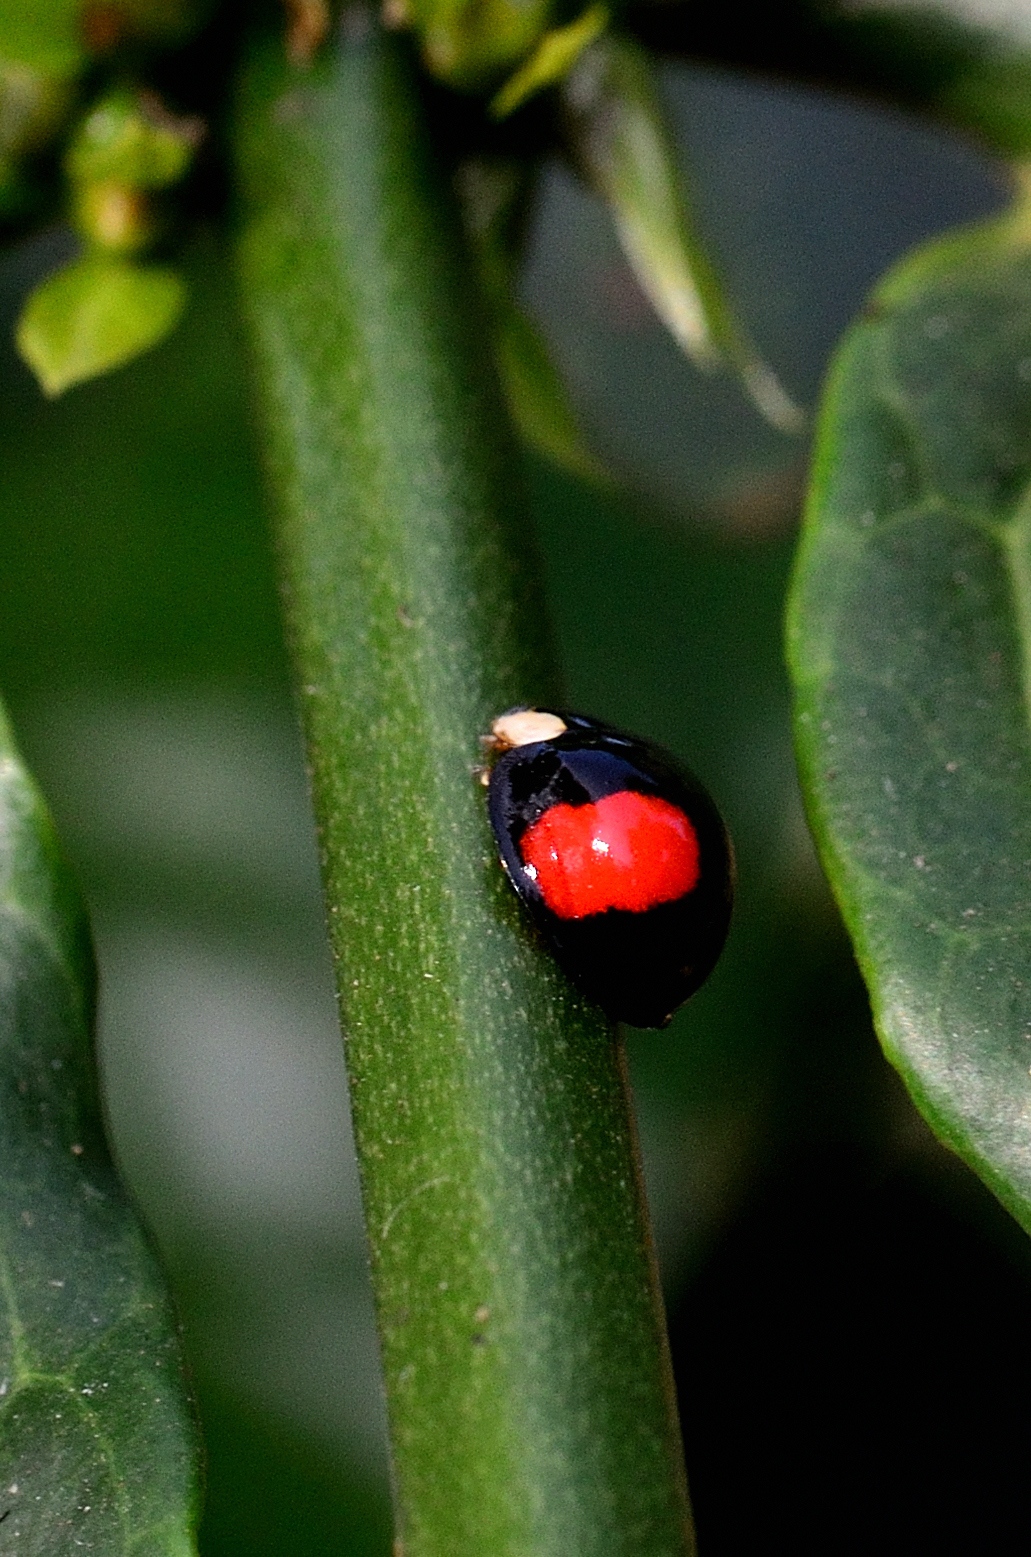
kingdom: Animalia
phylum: Arthropoda
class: Insecta
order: Coleoptera
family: Coccinellidae
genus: Coelophora
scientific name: Coelophora saucia
